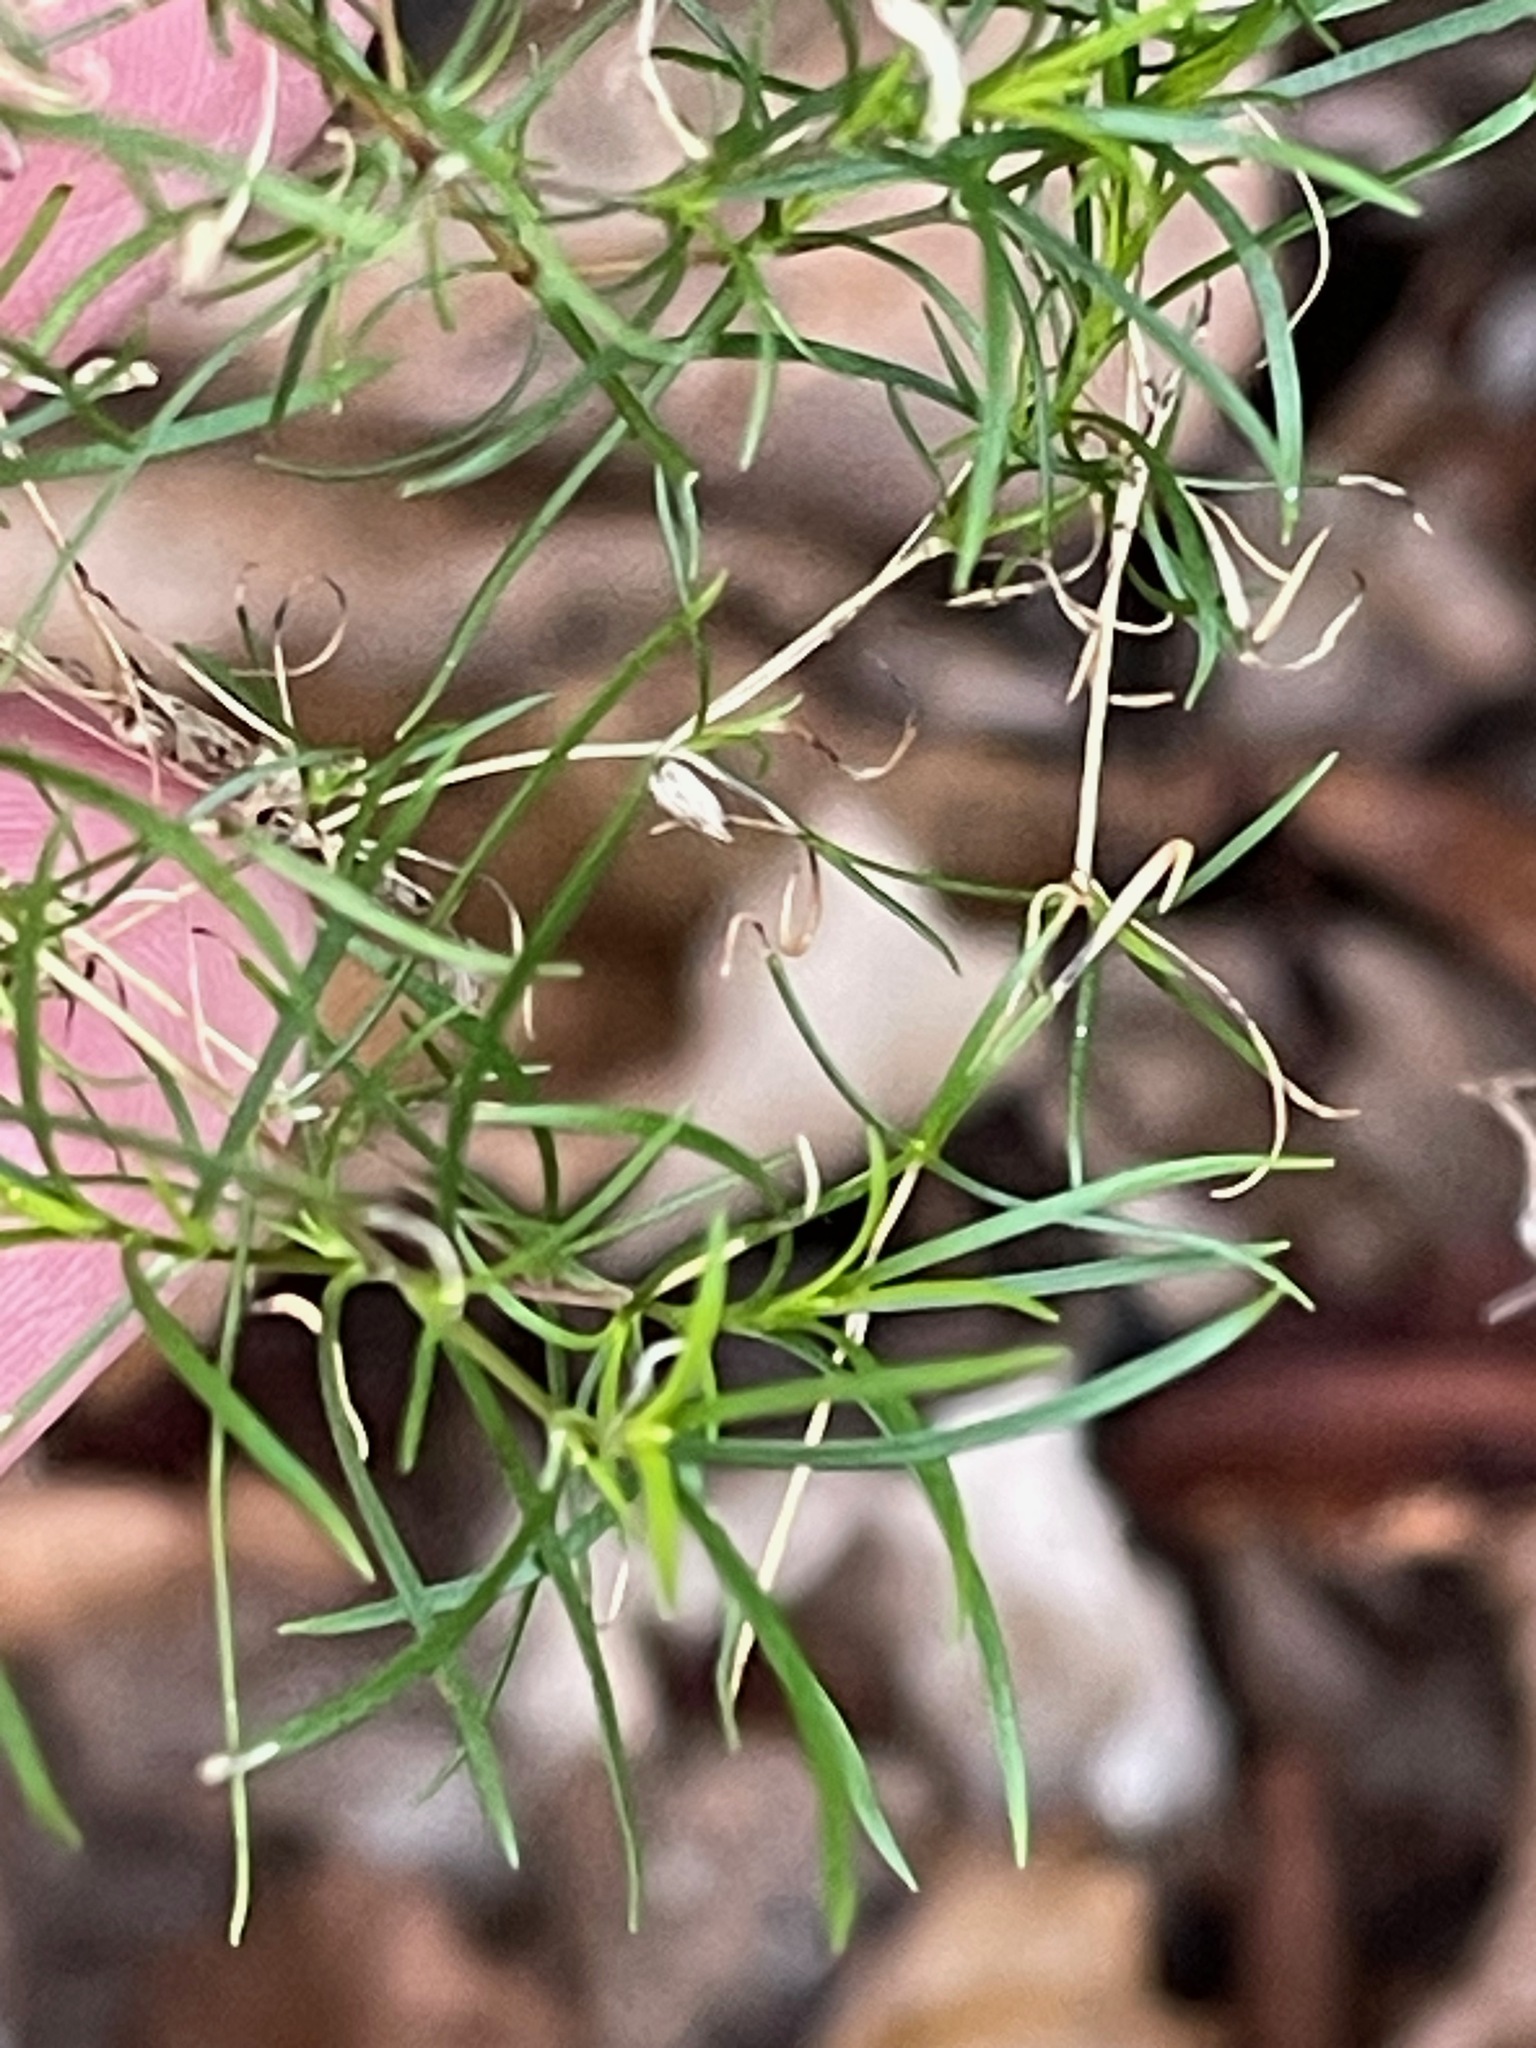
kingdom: Plantae
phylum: Tracheophyta
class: Magnoliopsida
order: Caryophyllales
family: Caryophyllaceae
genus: Sabulina
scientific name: Sabulina michauxii
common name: Michaux's stitchwort
